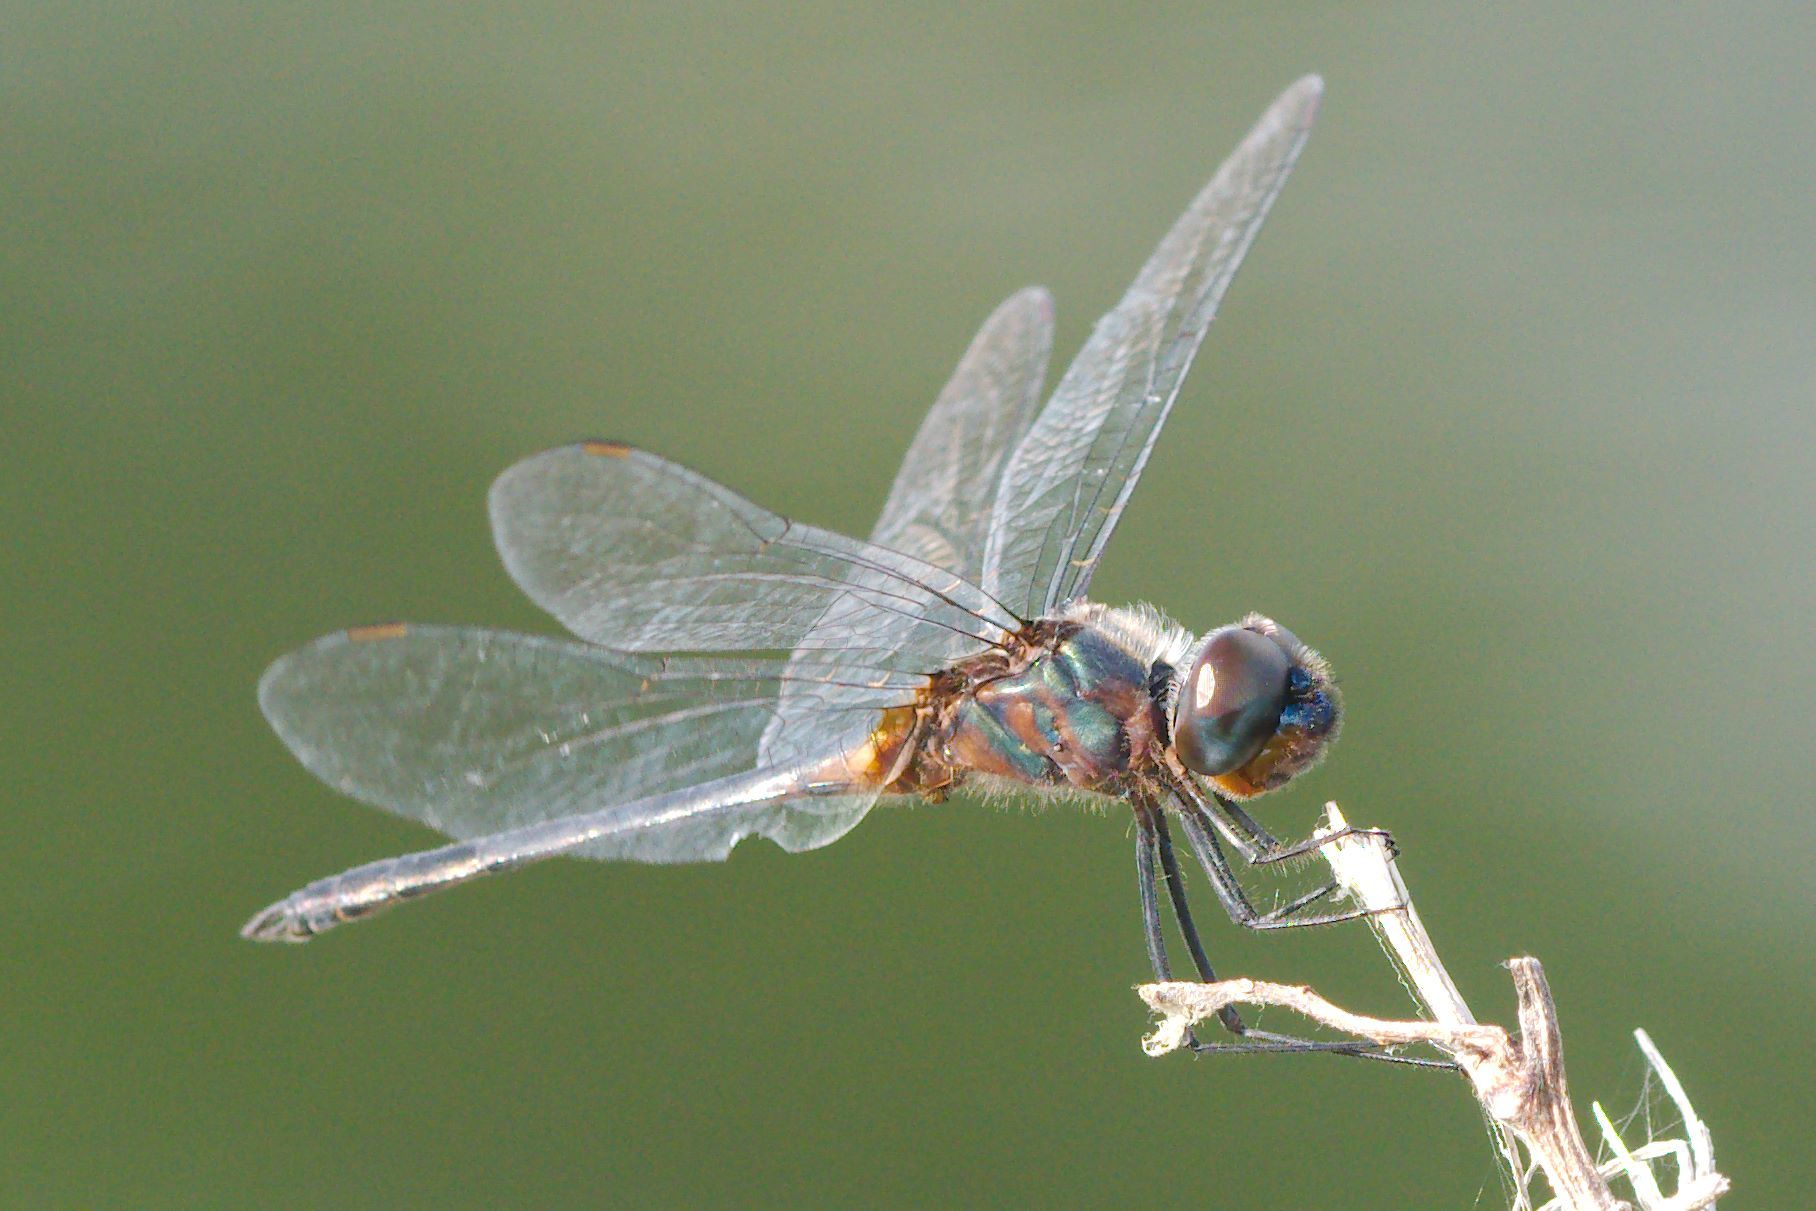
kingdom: Animalia
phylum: Arthropoda
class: Insecta
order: Odonata
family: Libellulidae
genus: Idiataphe
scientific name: Idiataphe cubensis
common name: Metallic pennant
